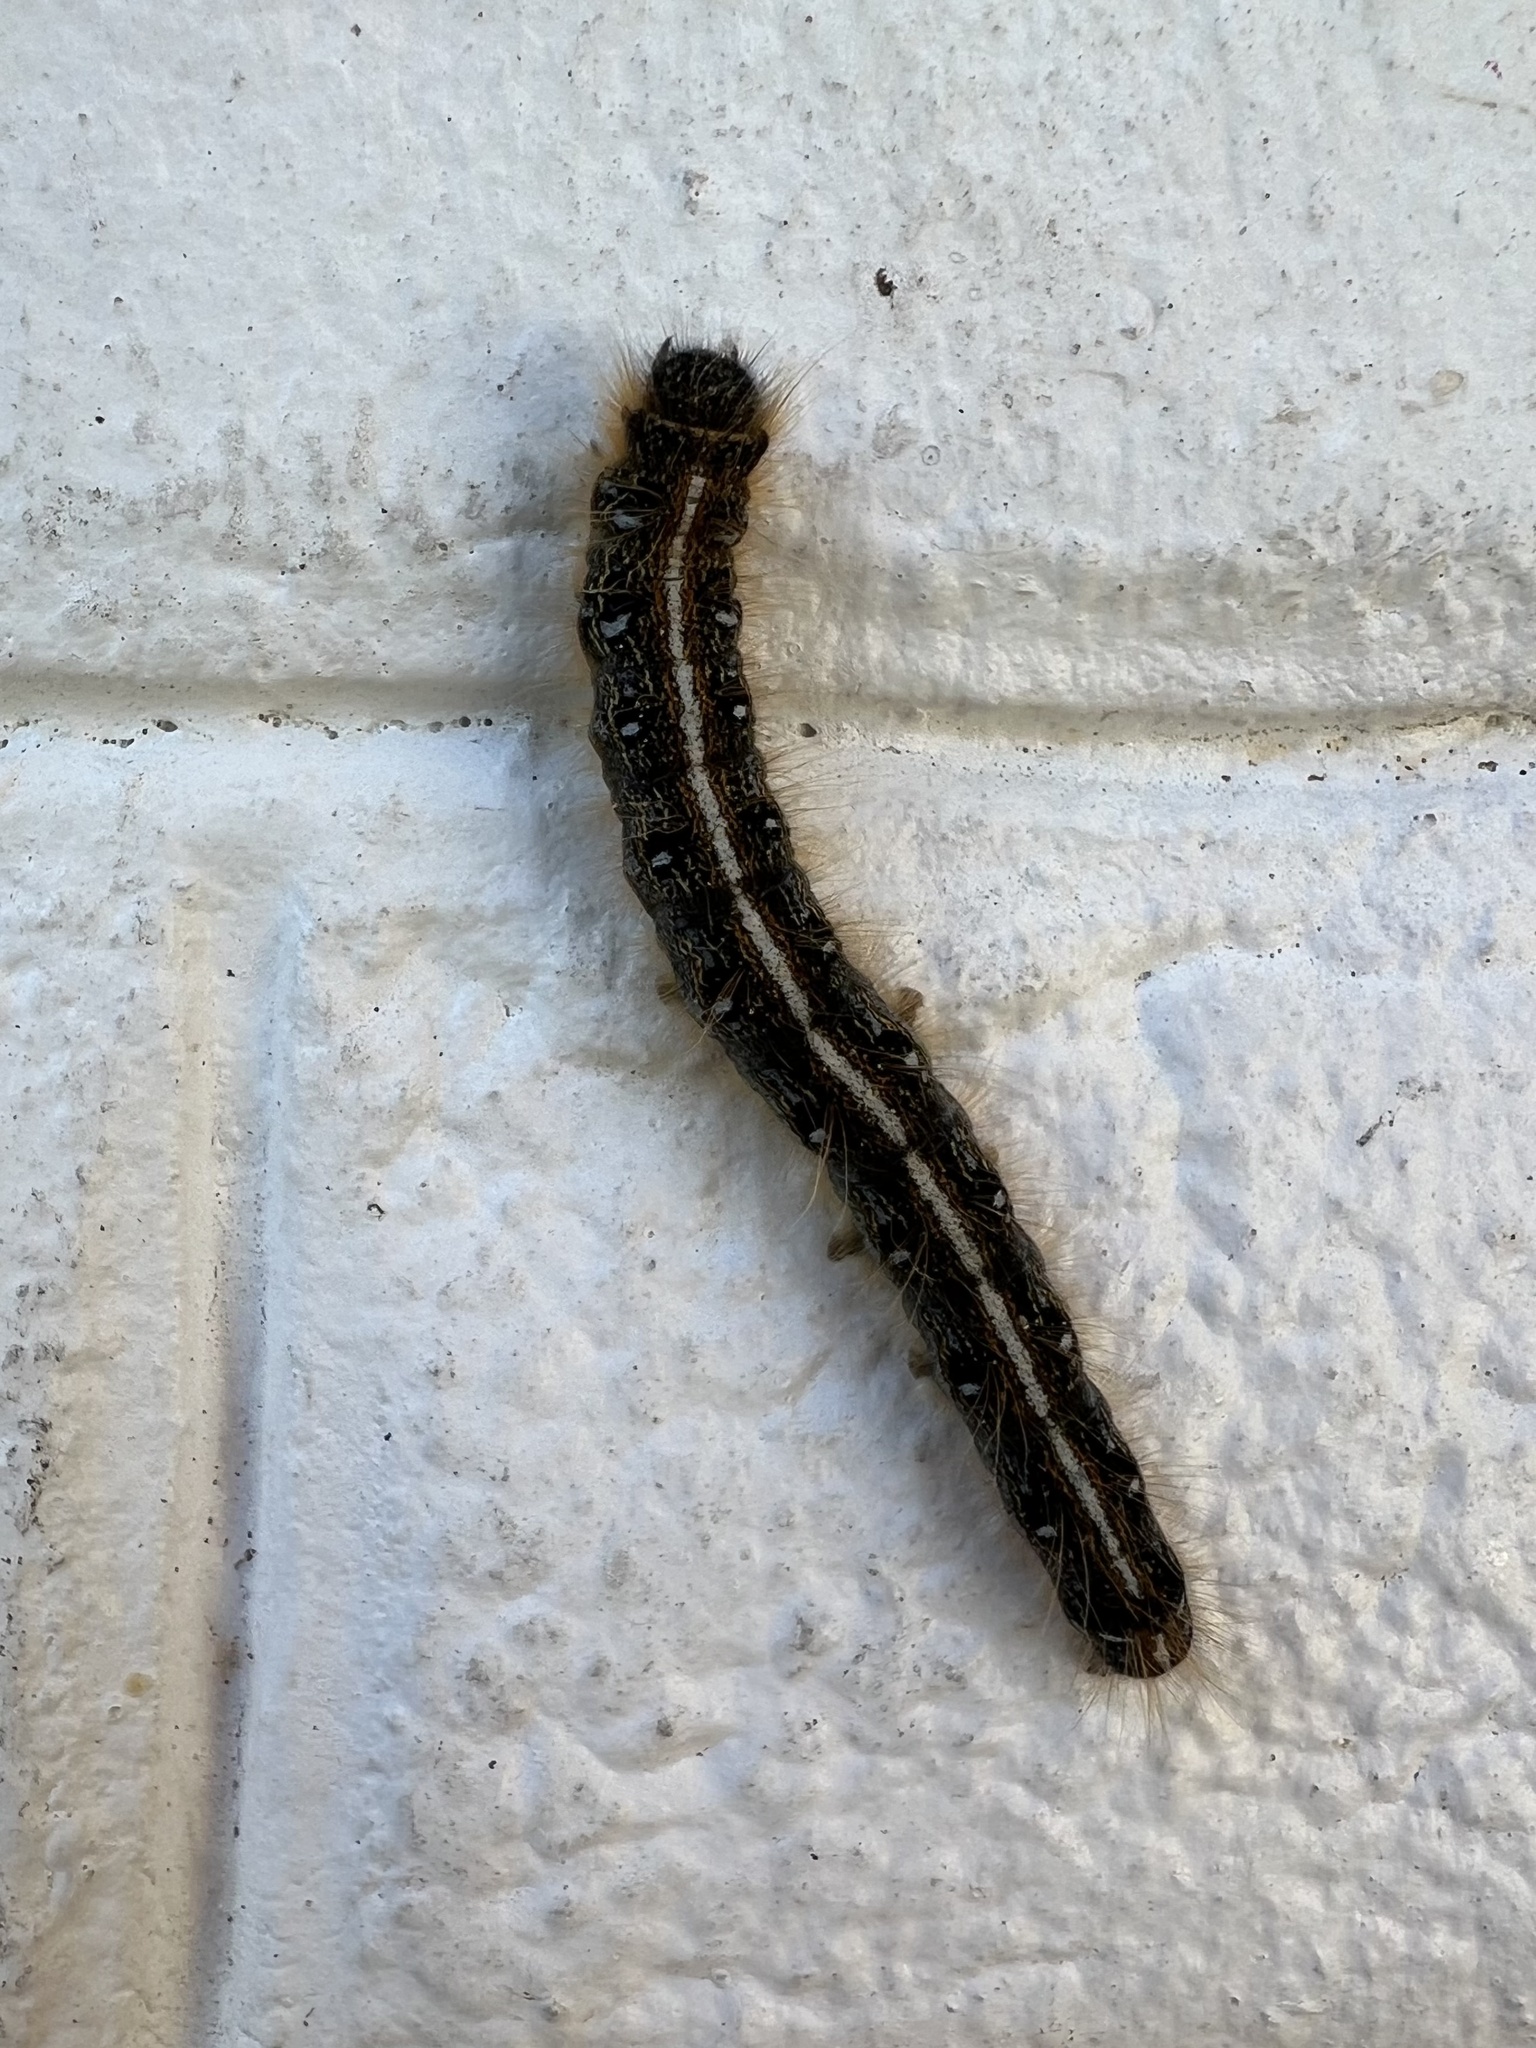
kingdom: Animalia
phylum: Arthropoda
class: Insecta
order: Lepidoptera
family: Lasiocampidae
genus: Malacosoma
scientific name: Malacosoma americana
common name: Eastern tent caterpillar moth
